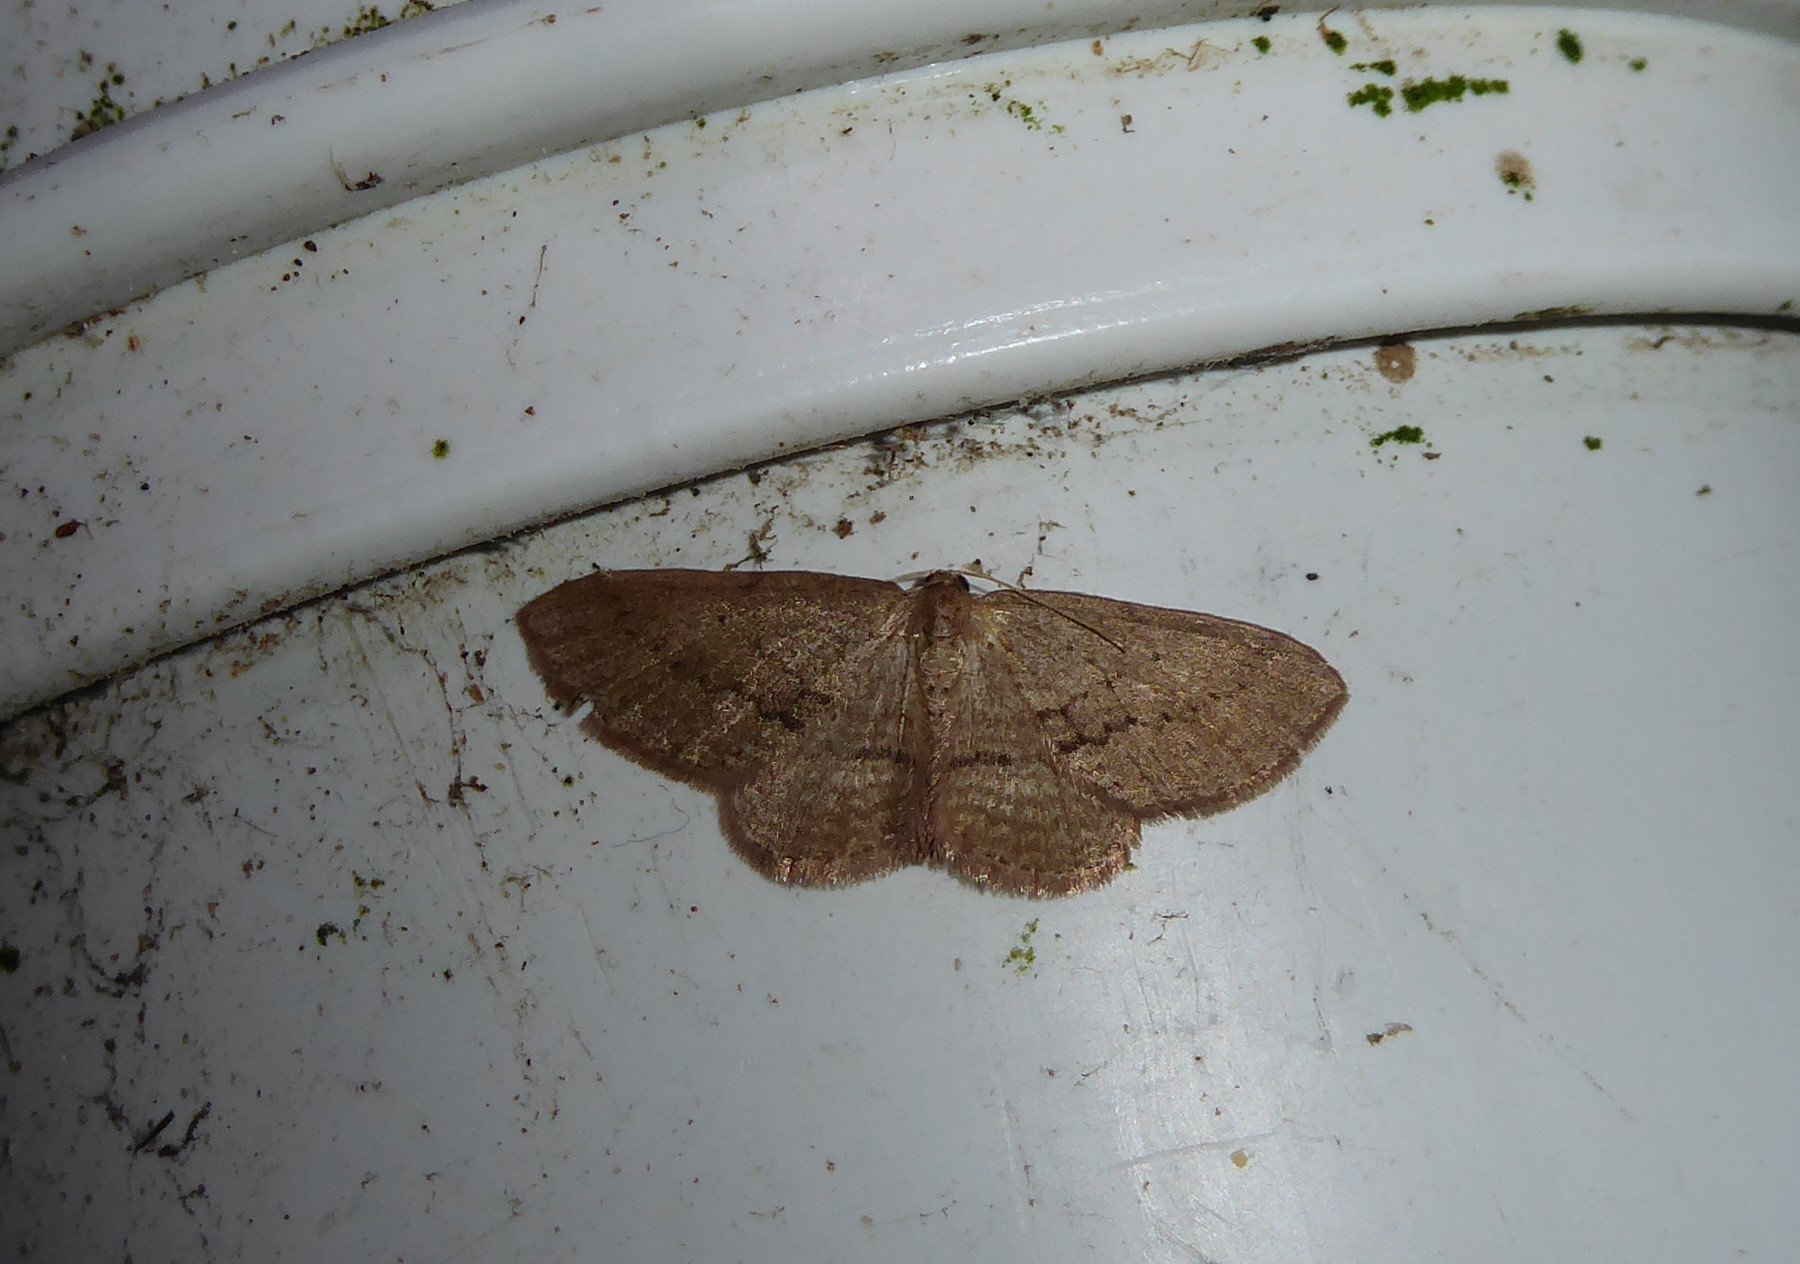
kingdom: Animalia
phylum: Arthropoda
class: Insecta
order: Lepidoptera
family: Geometridae
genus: Poecilasthena
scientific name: Poecilasthena schistaria
